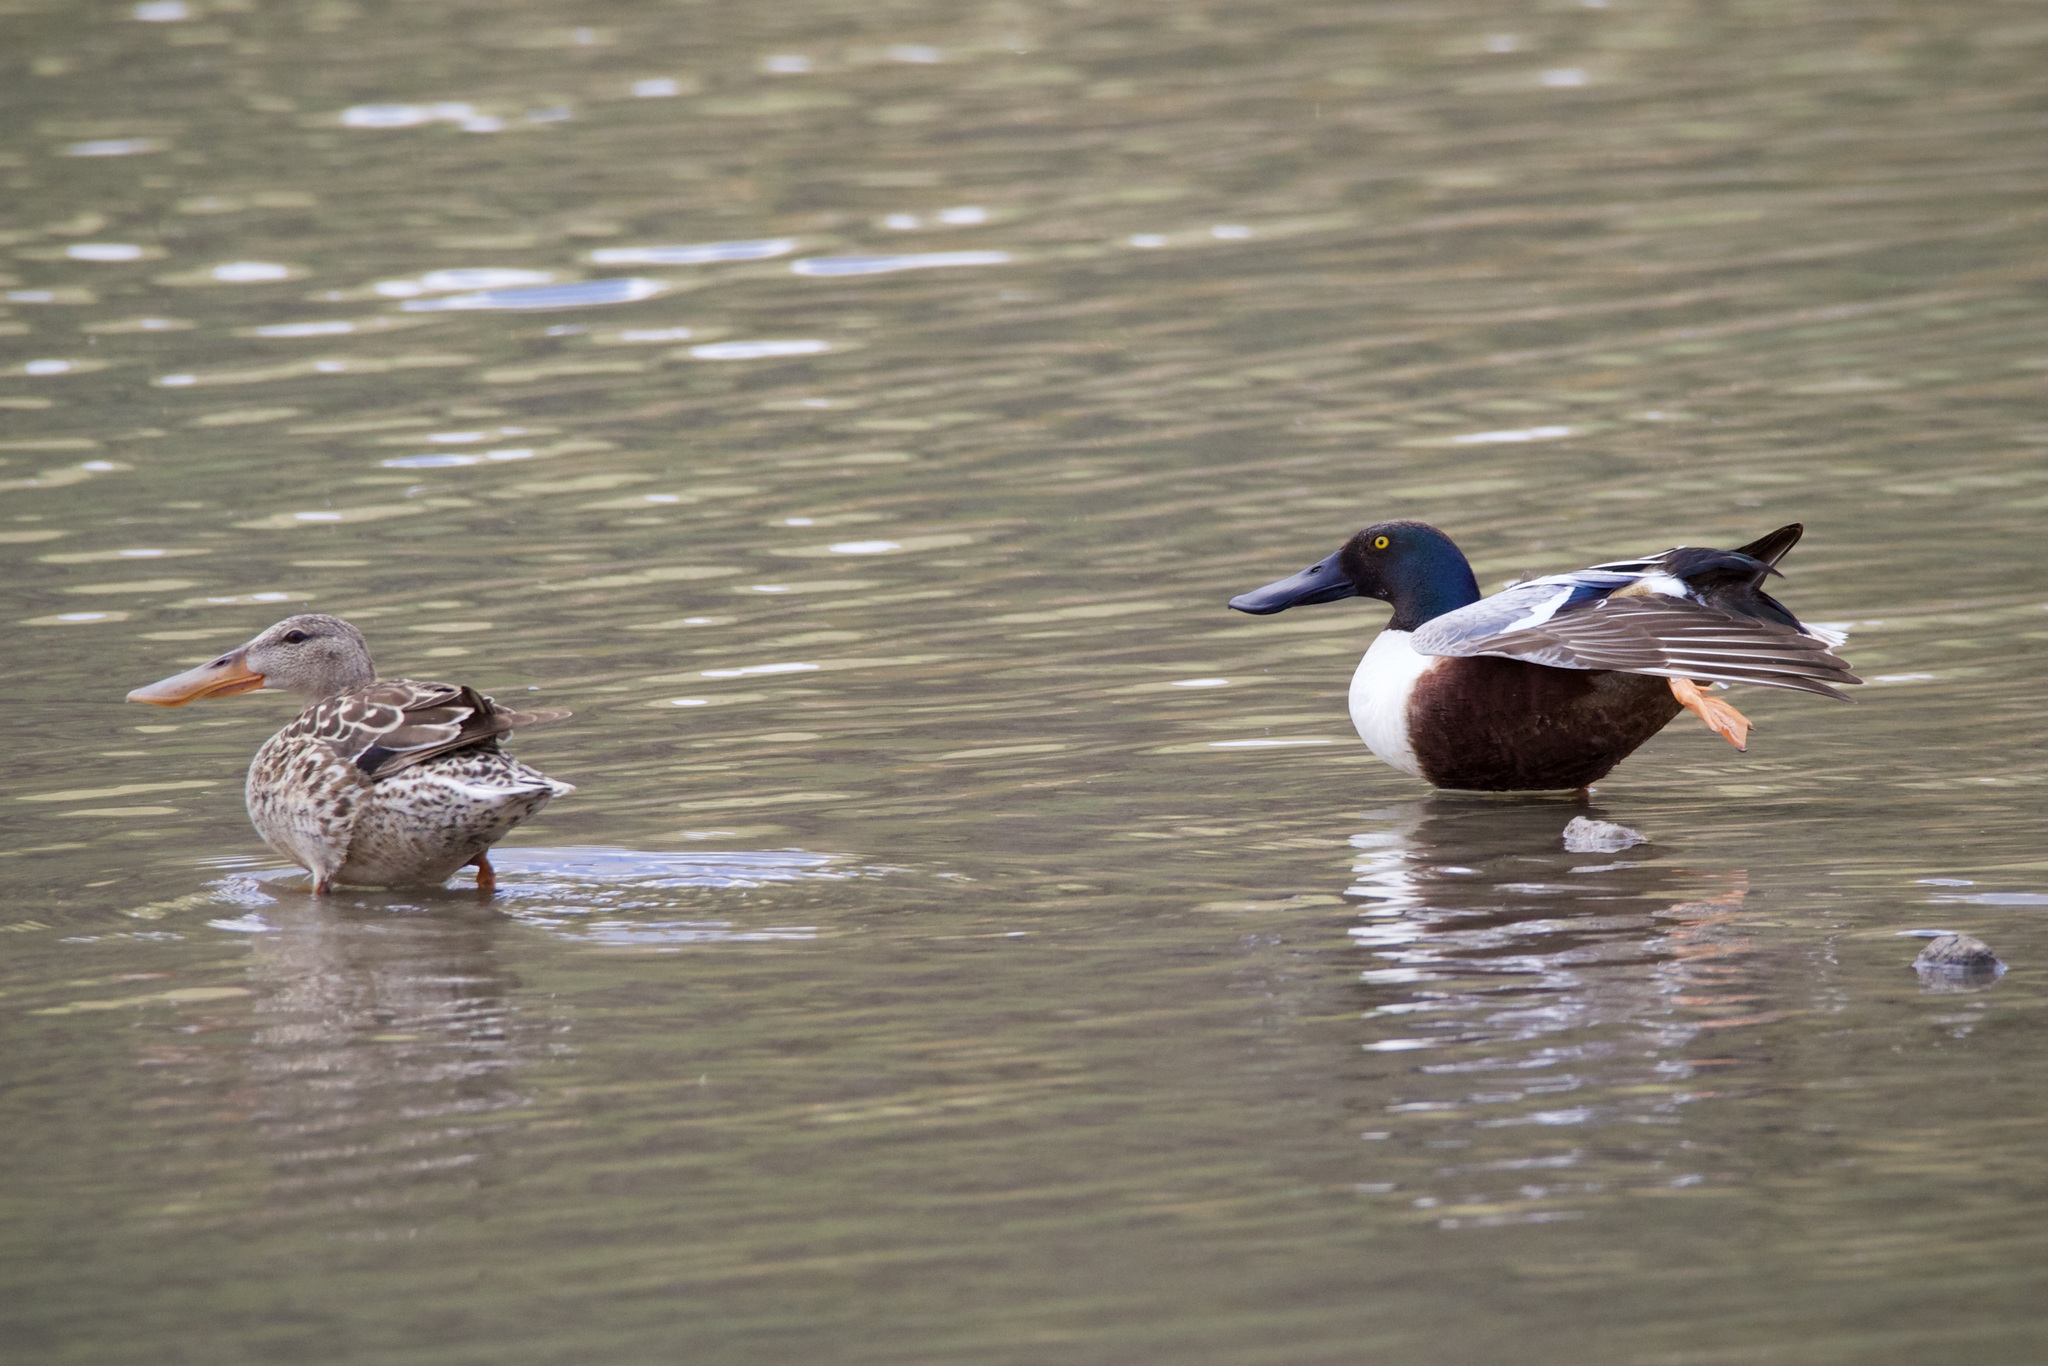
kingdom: Animalia
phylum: Chordata
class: Aves
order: Anseriformes
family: Anatidae
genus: Spatula
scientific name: Spatula clypeata
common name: Northern shoveler
